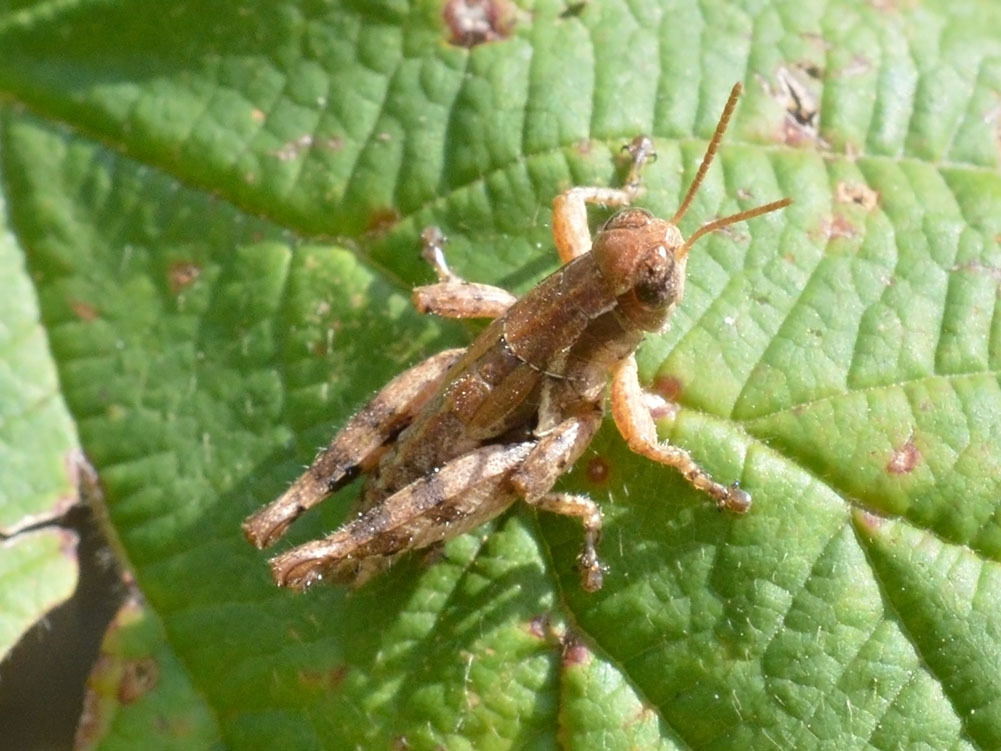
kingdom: Animalia
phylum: Arthropoda
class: Insecta
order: Orthoptera
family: Acrididae
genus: Pezotettix
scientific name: Pezotettix giornae
